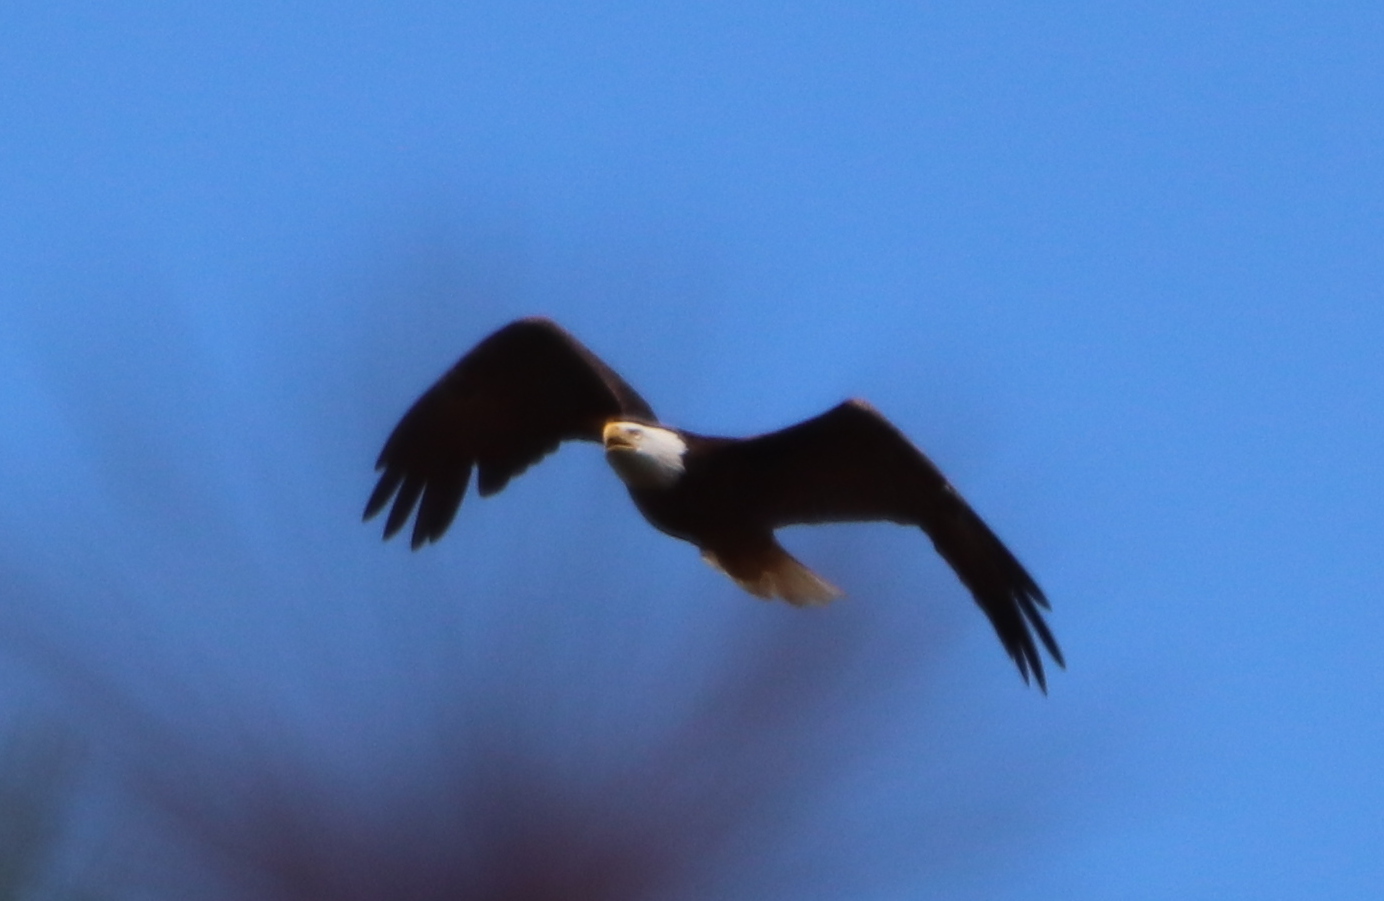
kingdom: Animalia
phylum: Chordata
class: Aves
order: Accipitriformes
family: Accipitridae
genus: Haliaeetus
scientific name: Haliaeetus leucocephalus
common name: Bald eagle
